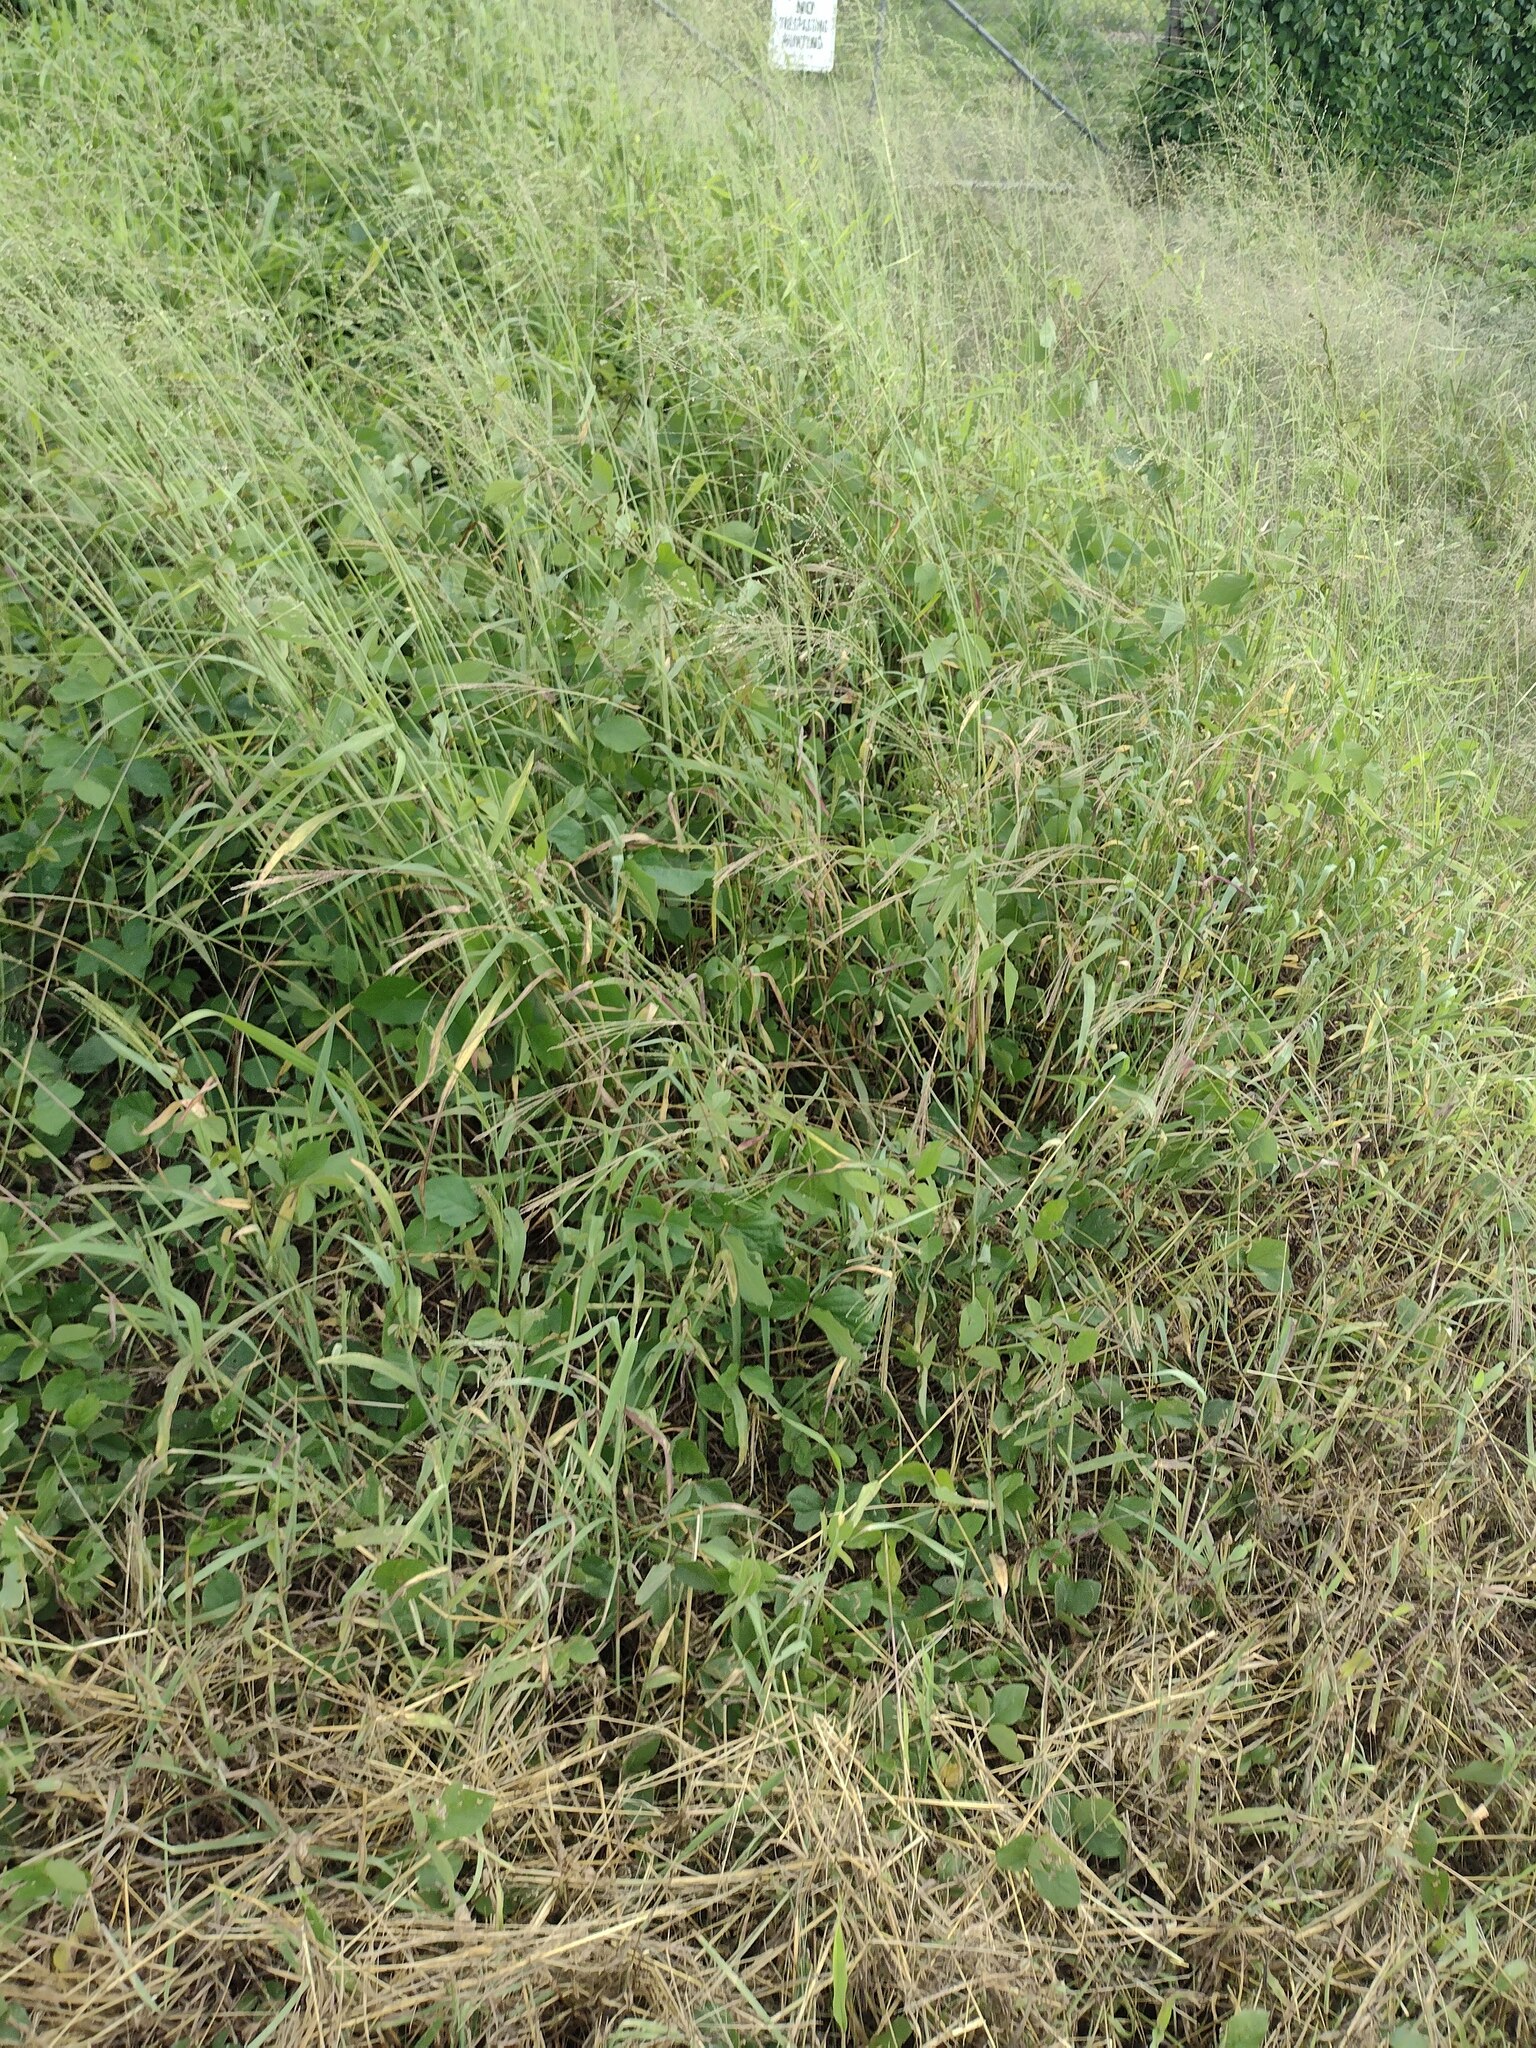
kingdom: Plantae
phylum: Tracheophyta
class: Liliopsida
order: Poales
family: Poaceae
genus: Megathyrsus
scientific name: Megathyrsus maximus
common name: Guineagrass
